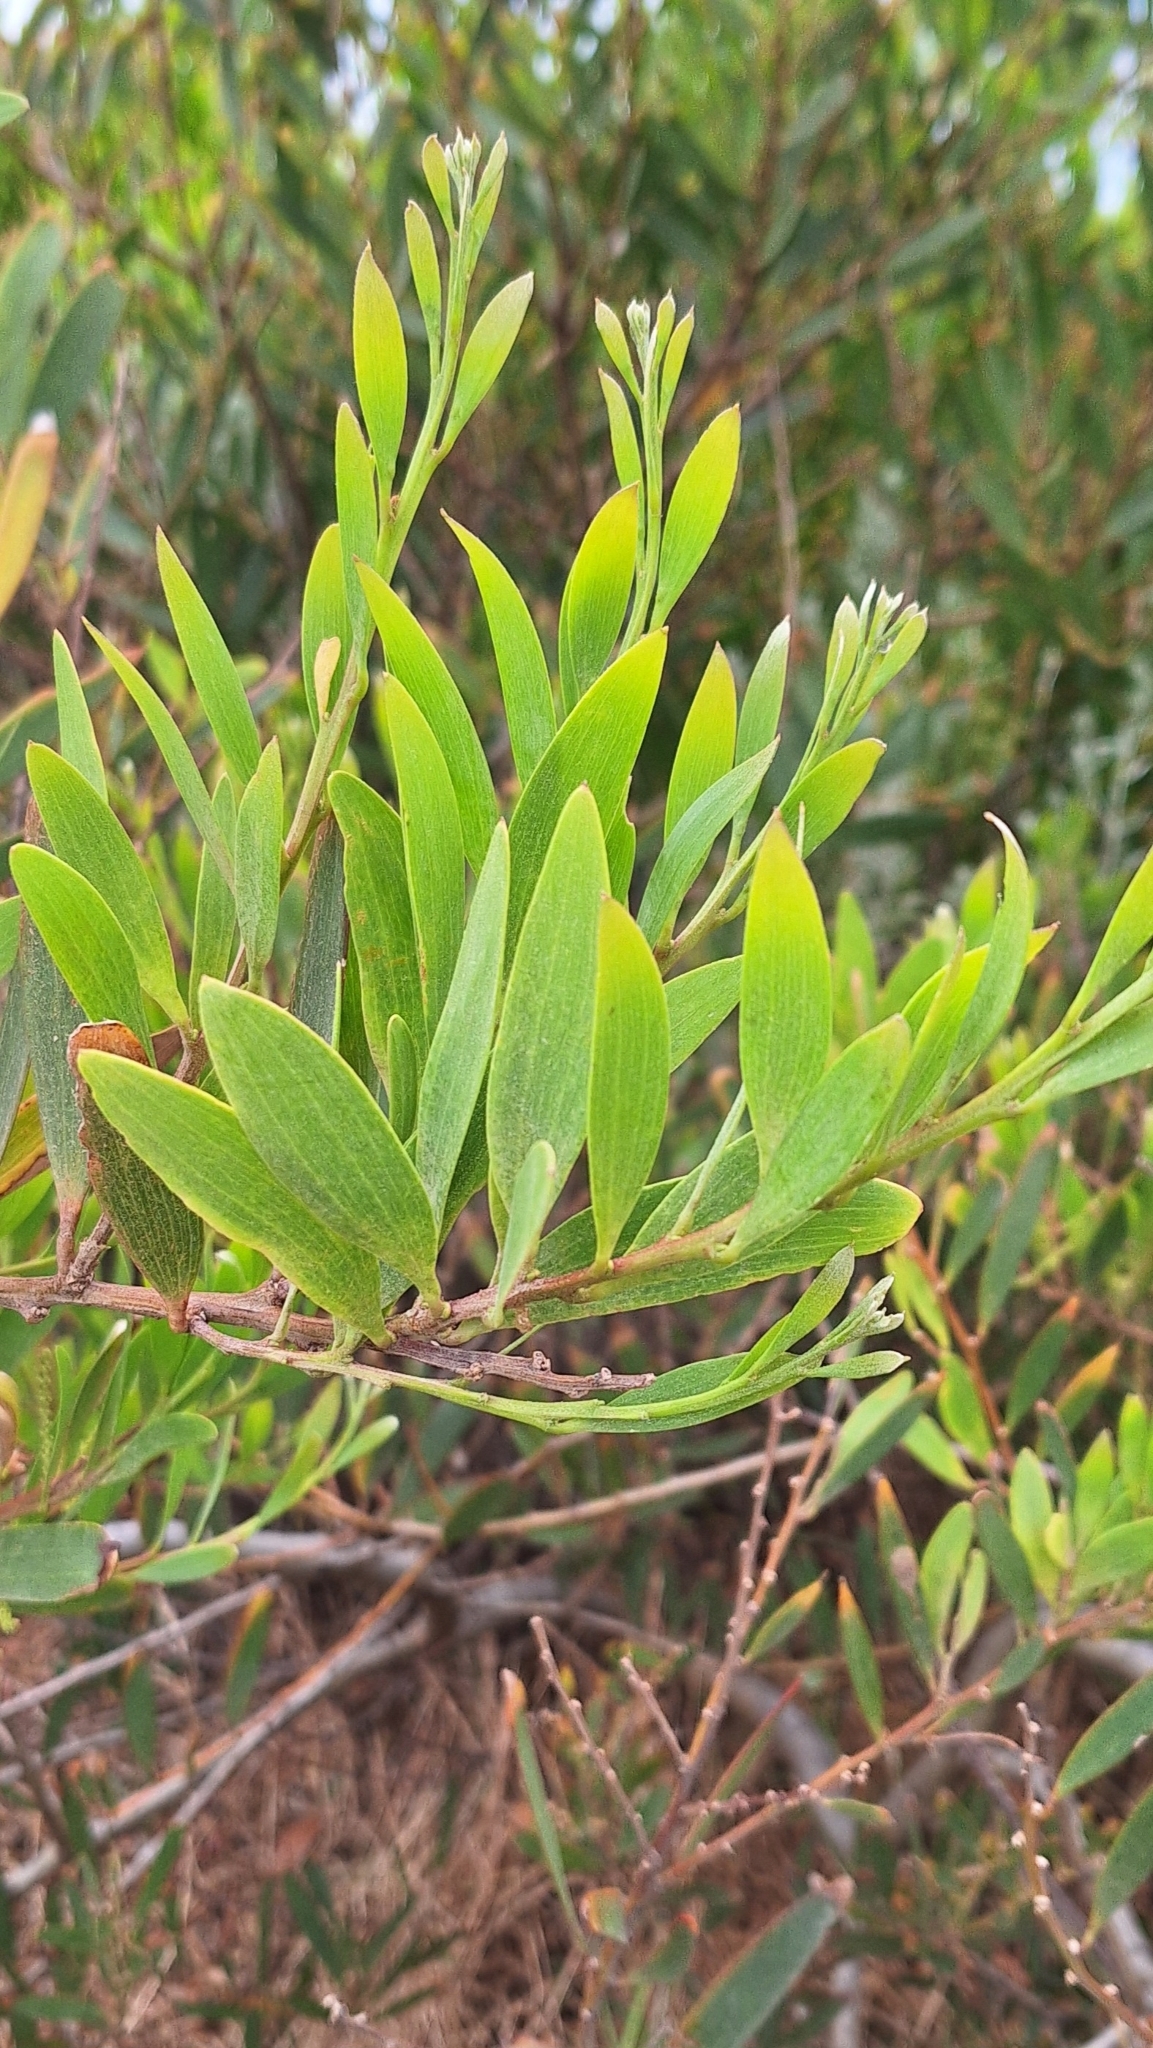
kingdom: Plantae
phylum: Tracheophyta
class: Magnoliopsida
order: Fabales
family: Fabaceae
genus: Acacia
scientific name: Acacia longifolia
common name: Sydney golden wattle
